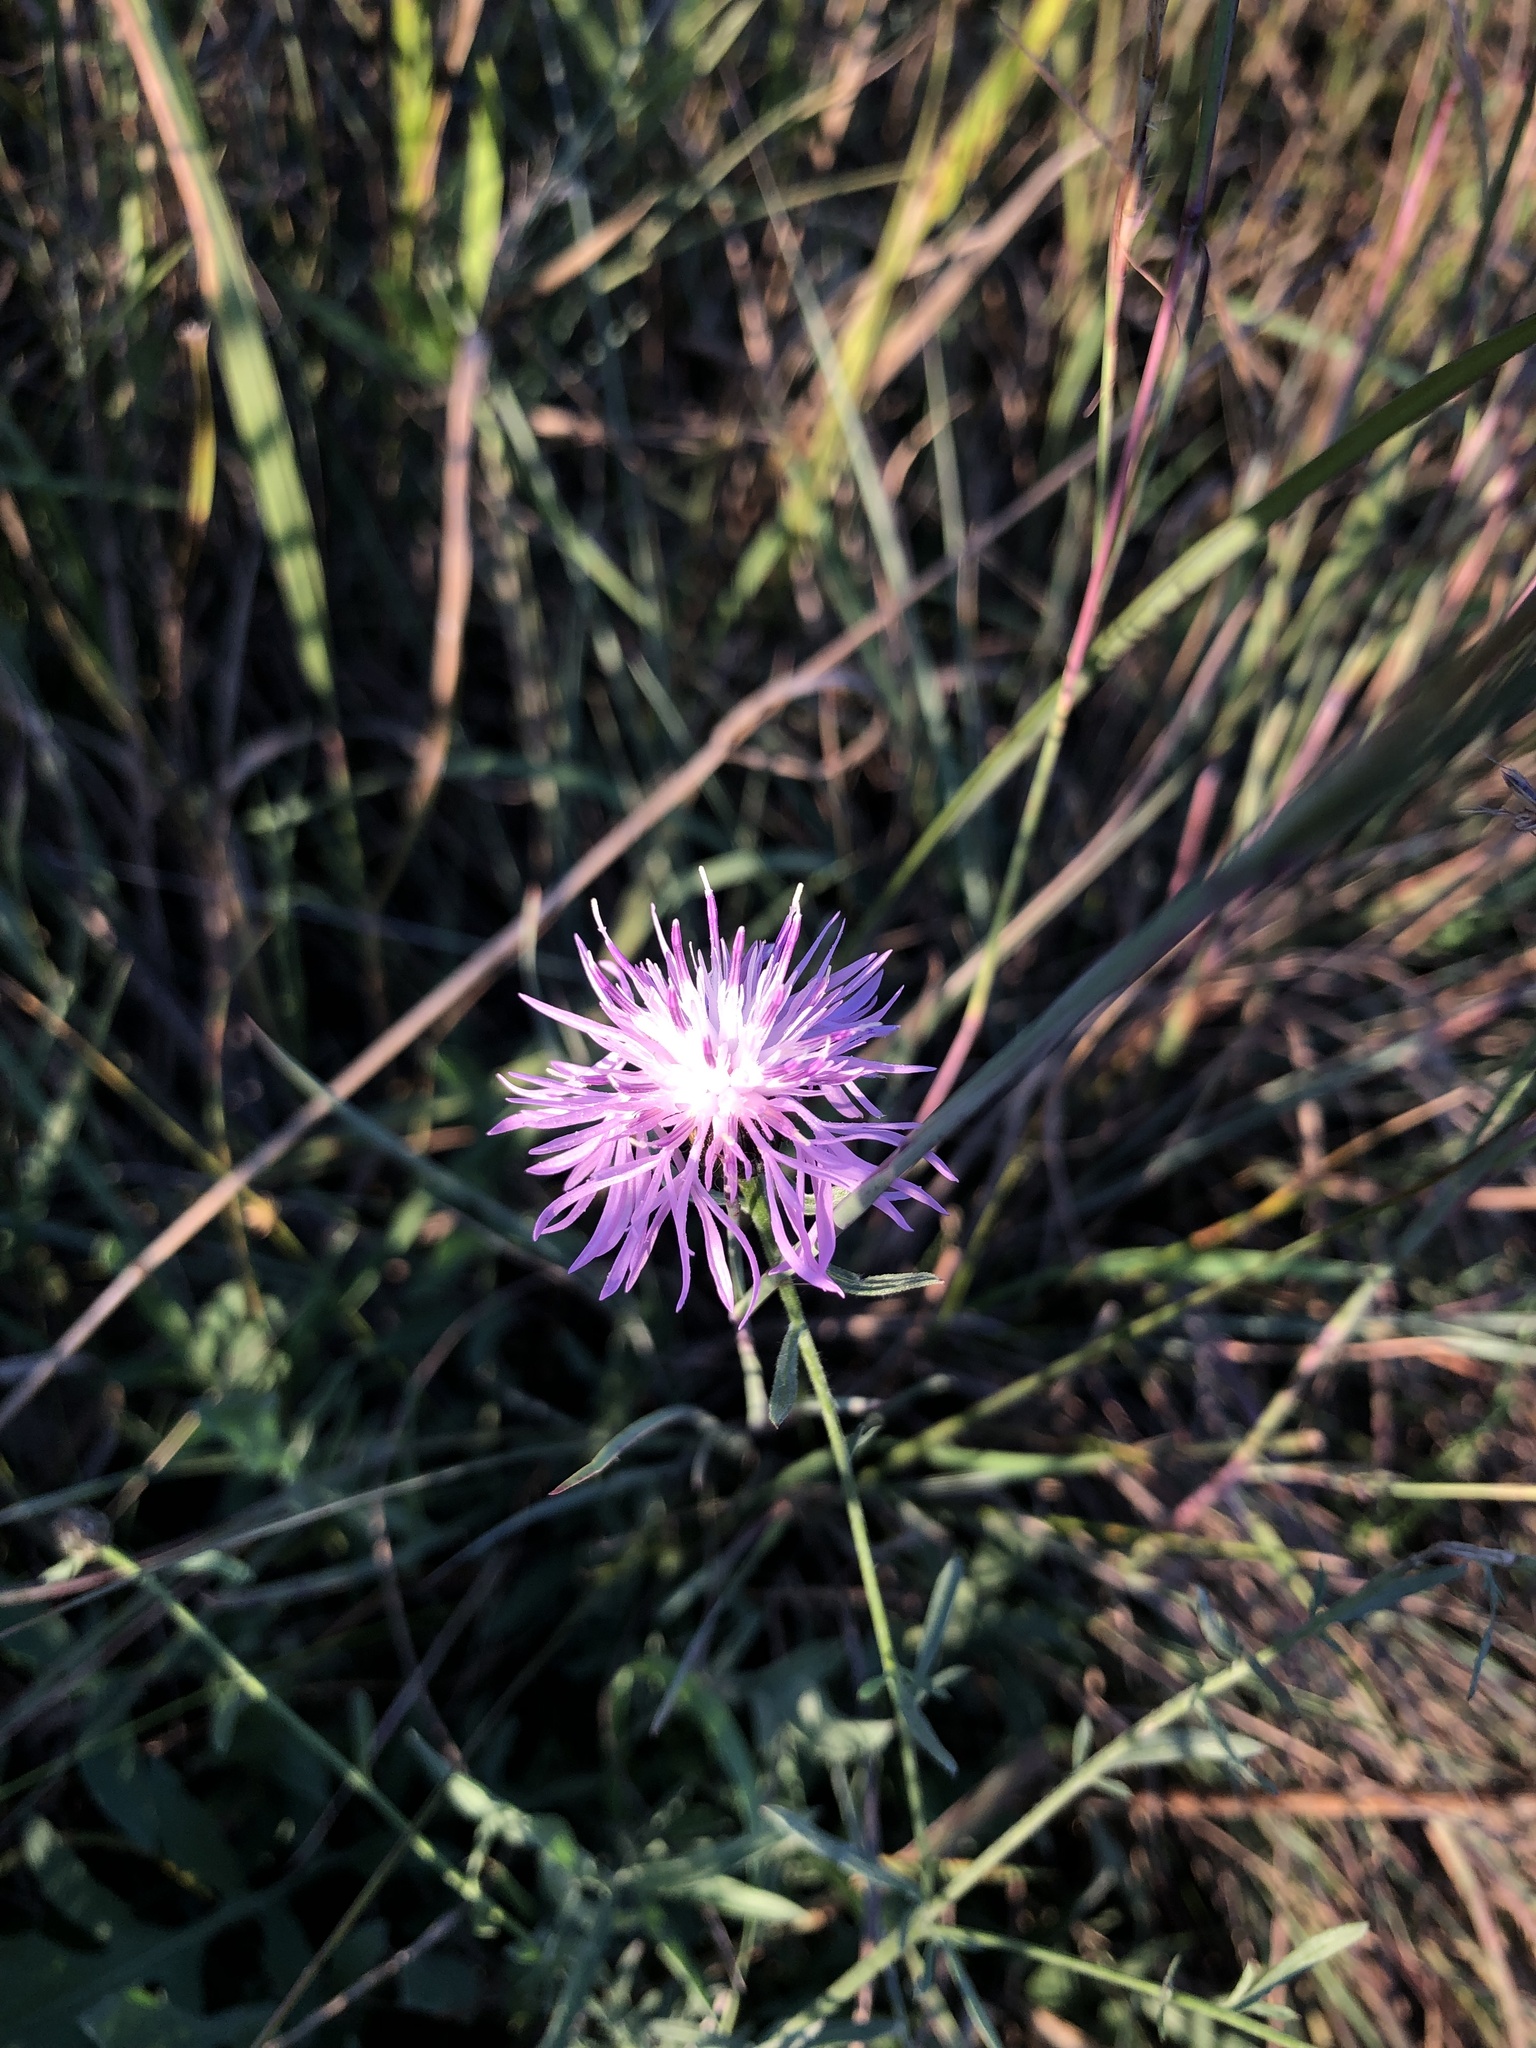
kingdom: Plantae
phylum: Tracheophyta
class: Magnoliopsida
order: Asterales
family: Asteraceae
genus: Centaurea
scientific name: Centaurea stoebe
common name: Spotted knapweed
